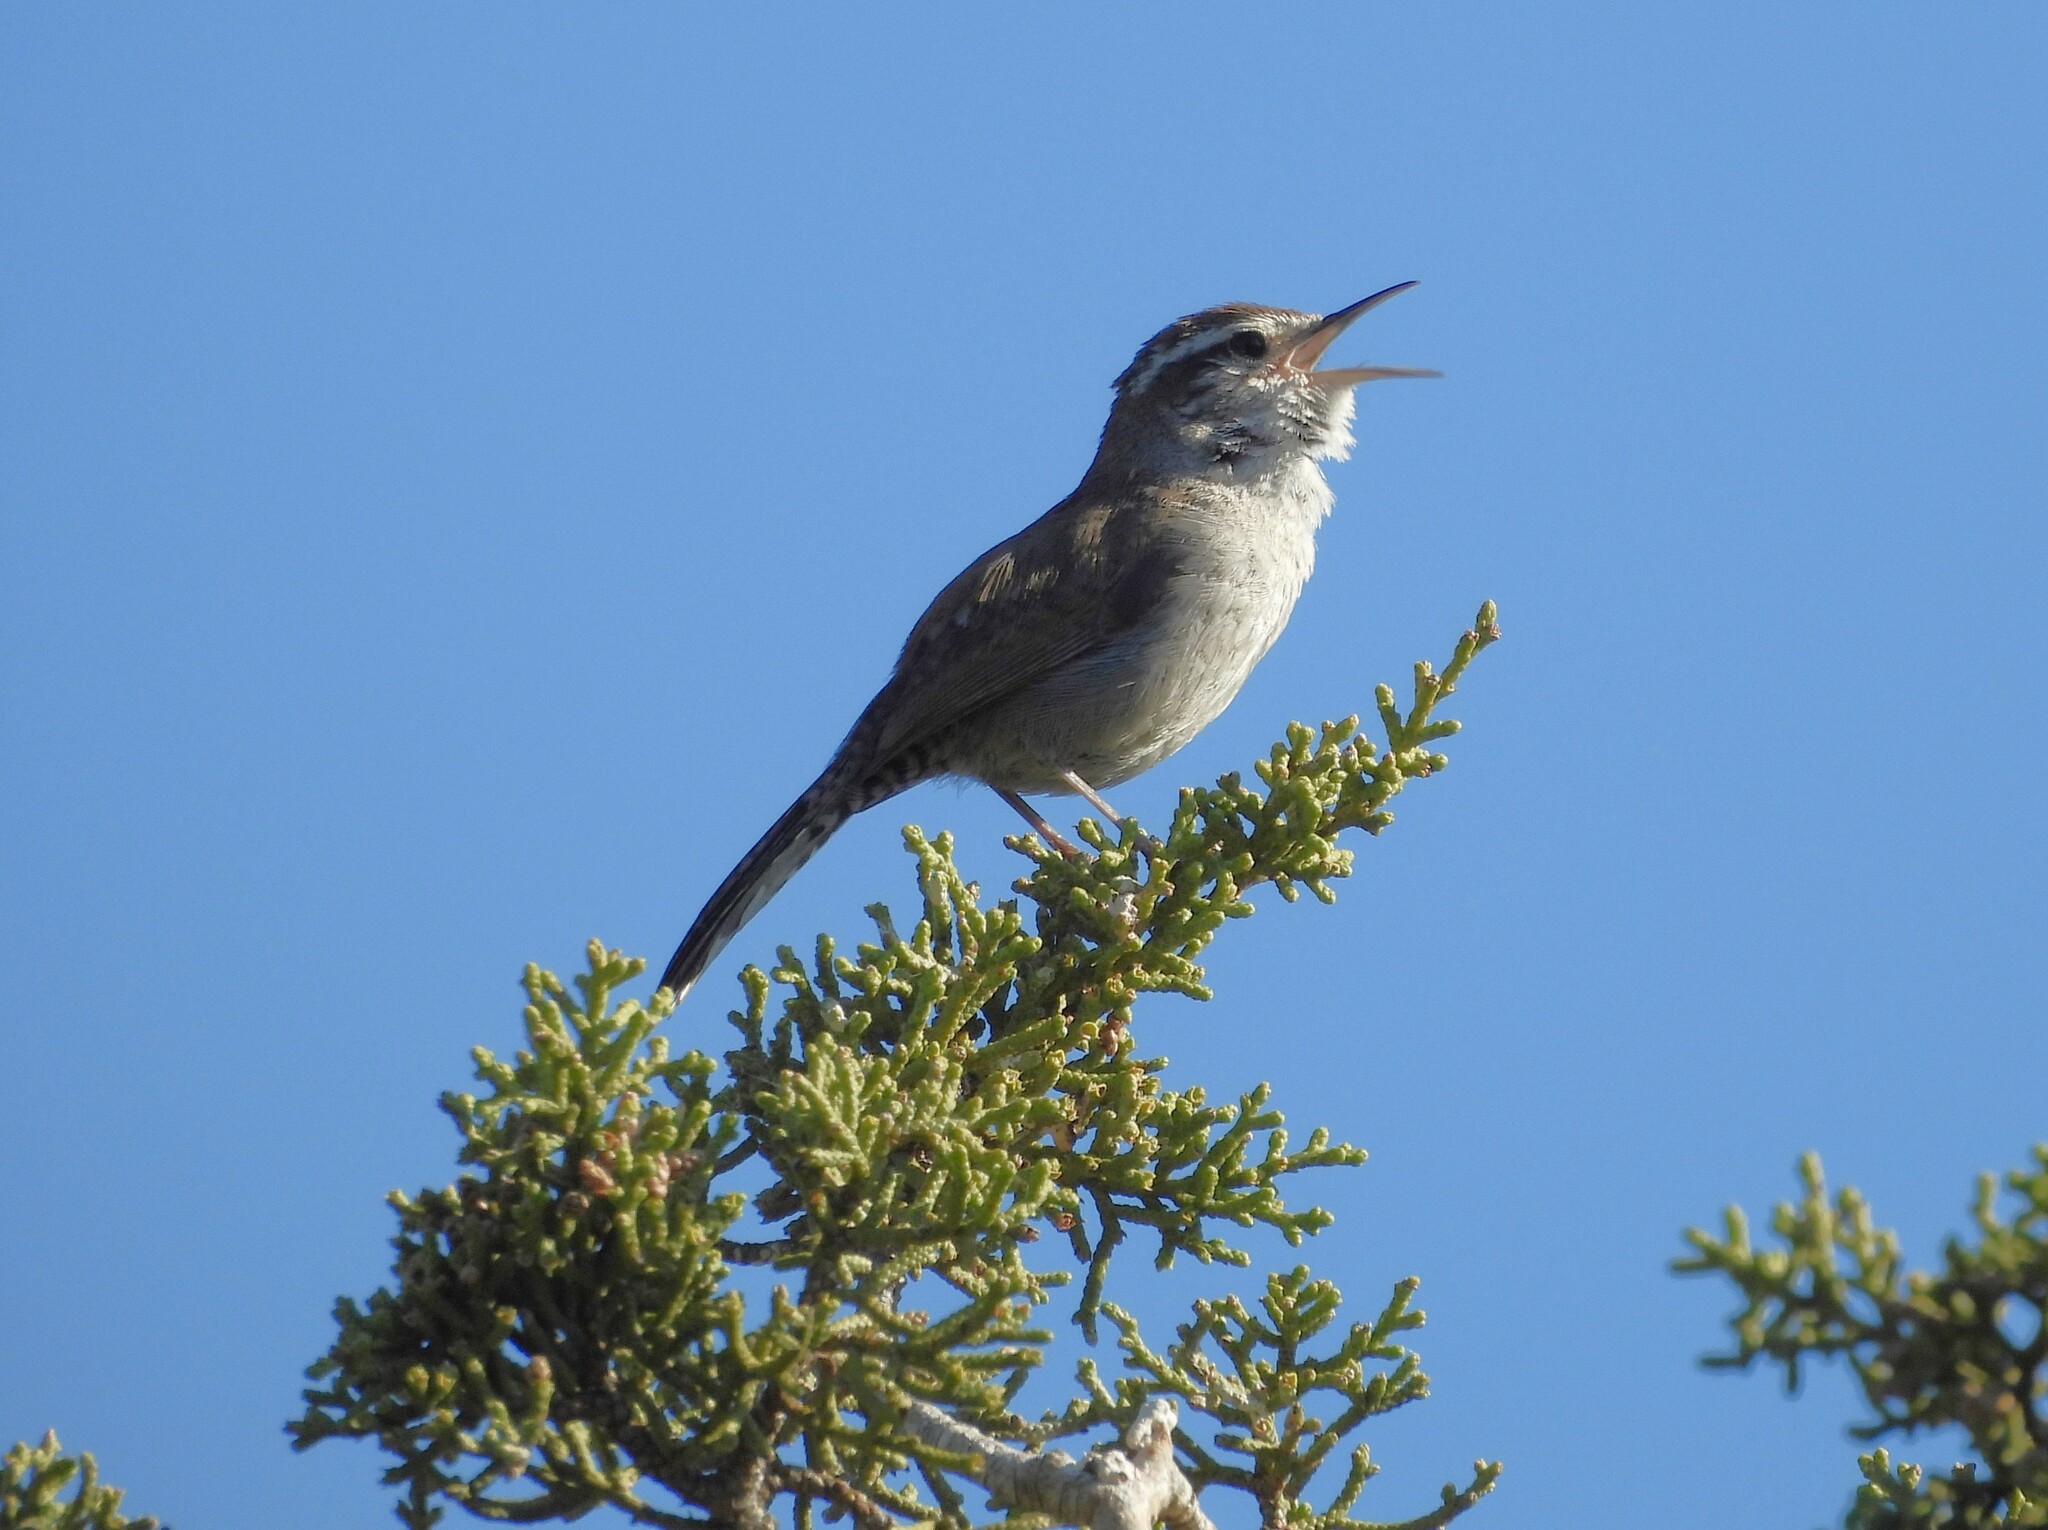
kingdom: Animalia
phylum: Chordata
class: Aves
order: Passeriformes
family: Troglodytidae
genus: Thryomanes
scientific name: Thryomanes bewickii
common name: Bewick's wren
